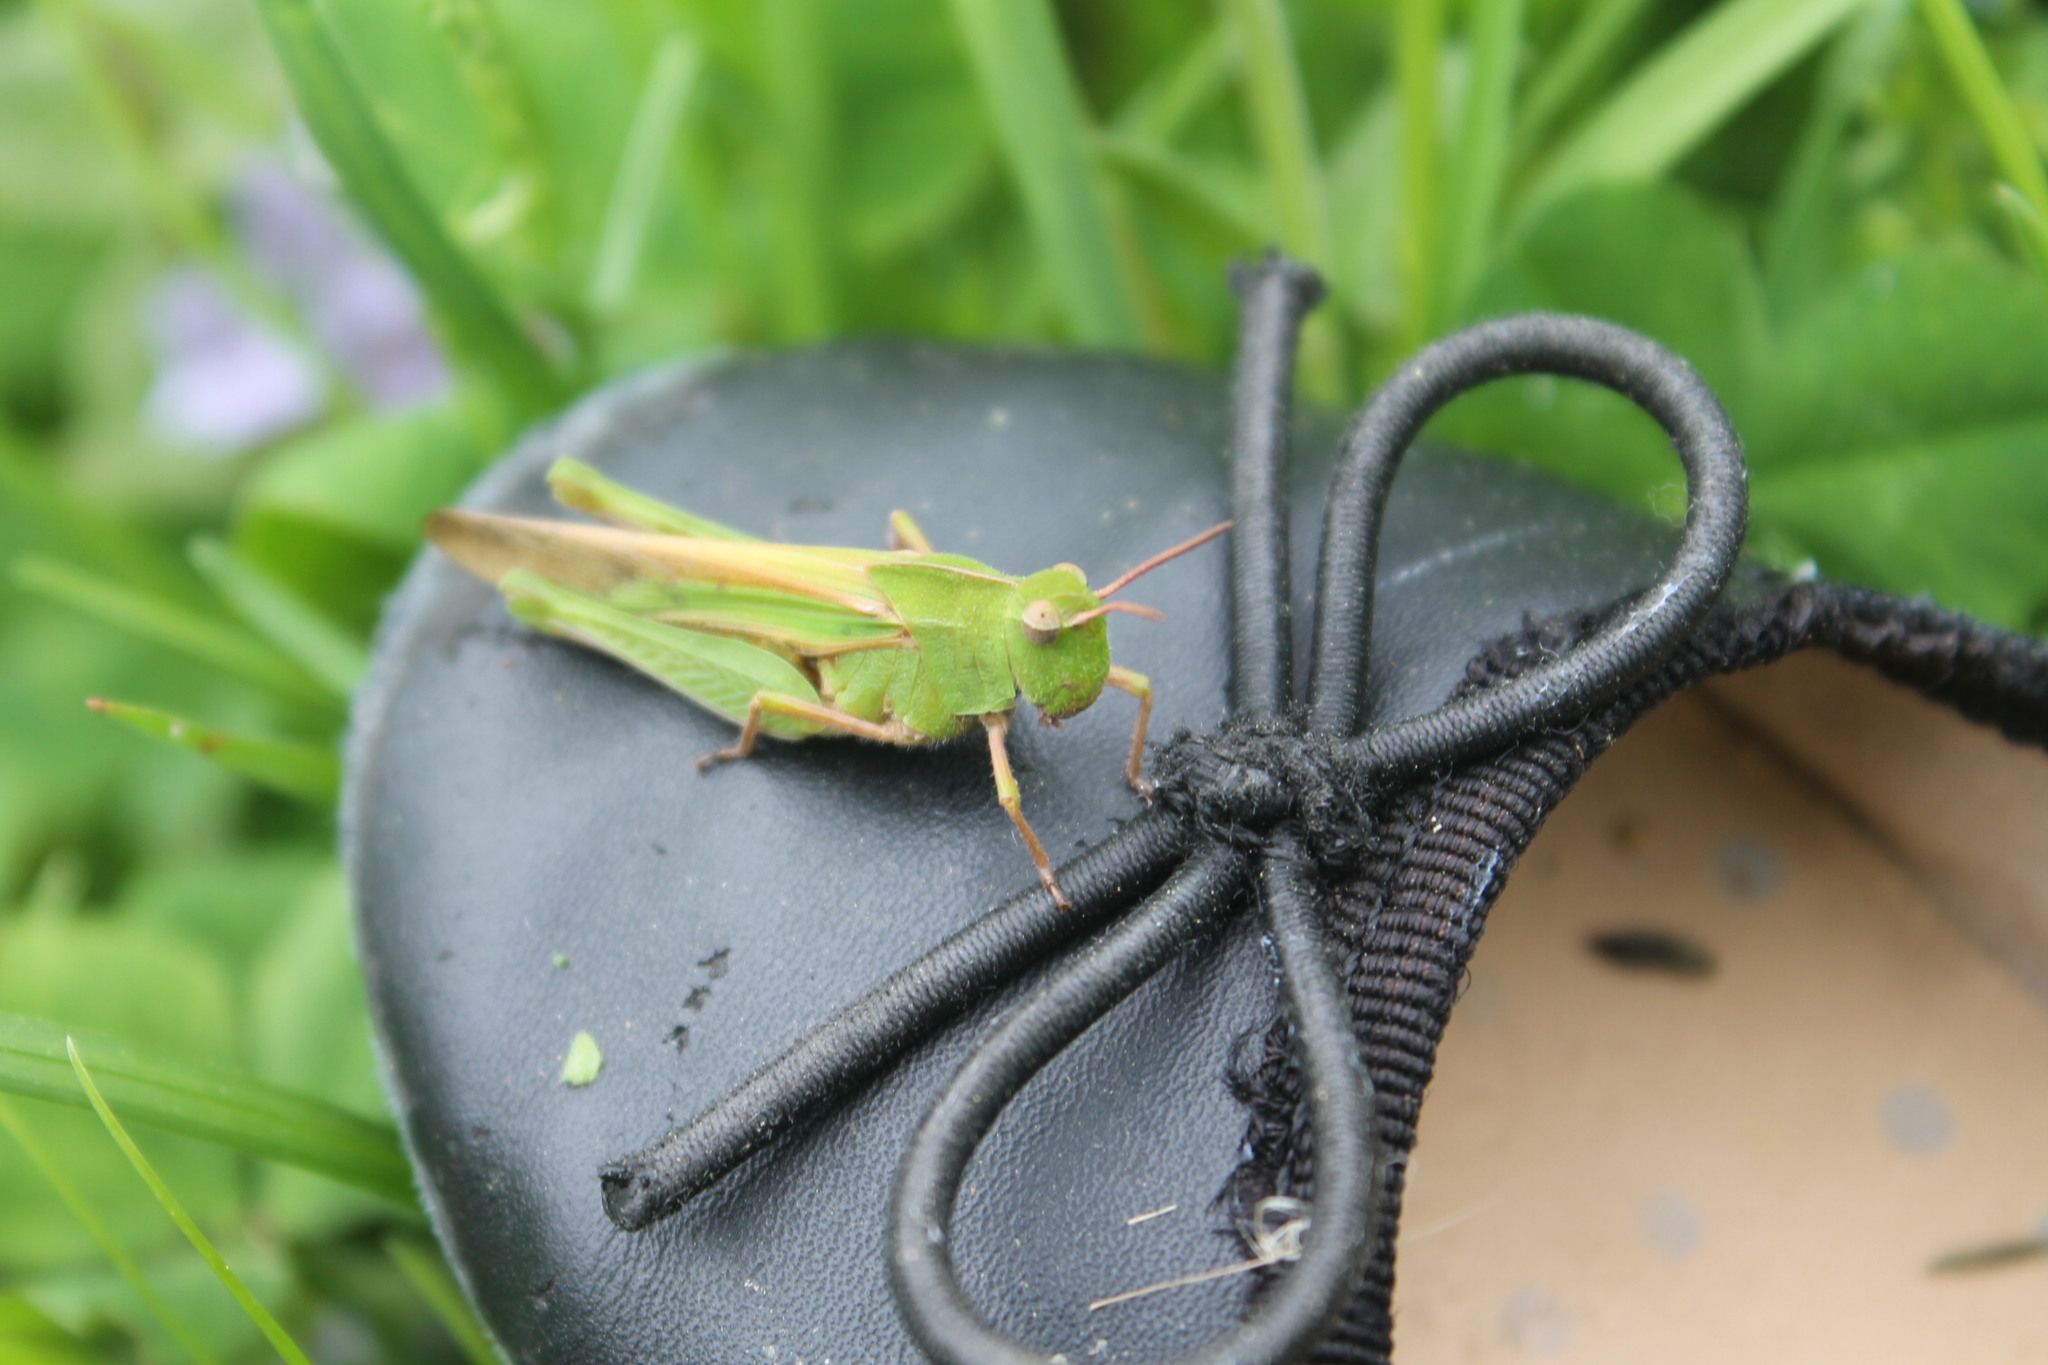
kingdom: Animalia
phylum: Arthropoda
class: Insecta
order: Orthoptera
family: Acrididae
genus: Chortophaga
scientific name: Chortophaga viridifasciata
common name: Green-striped grasshopper
